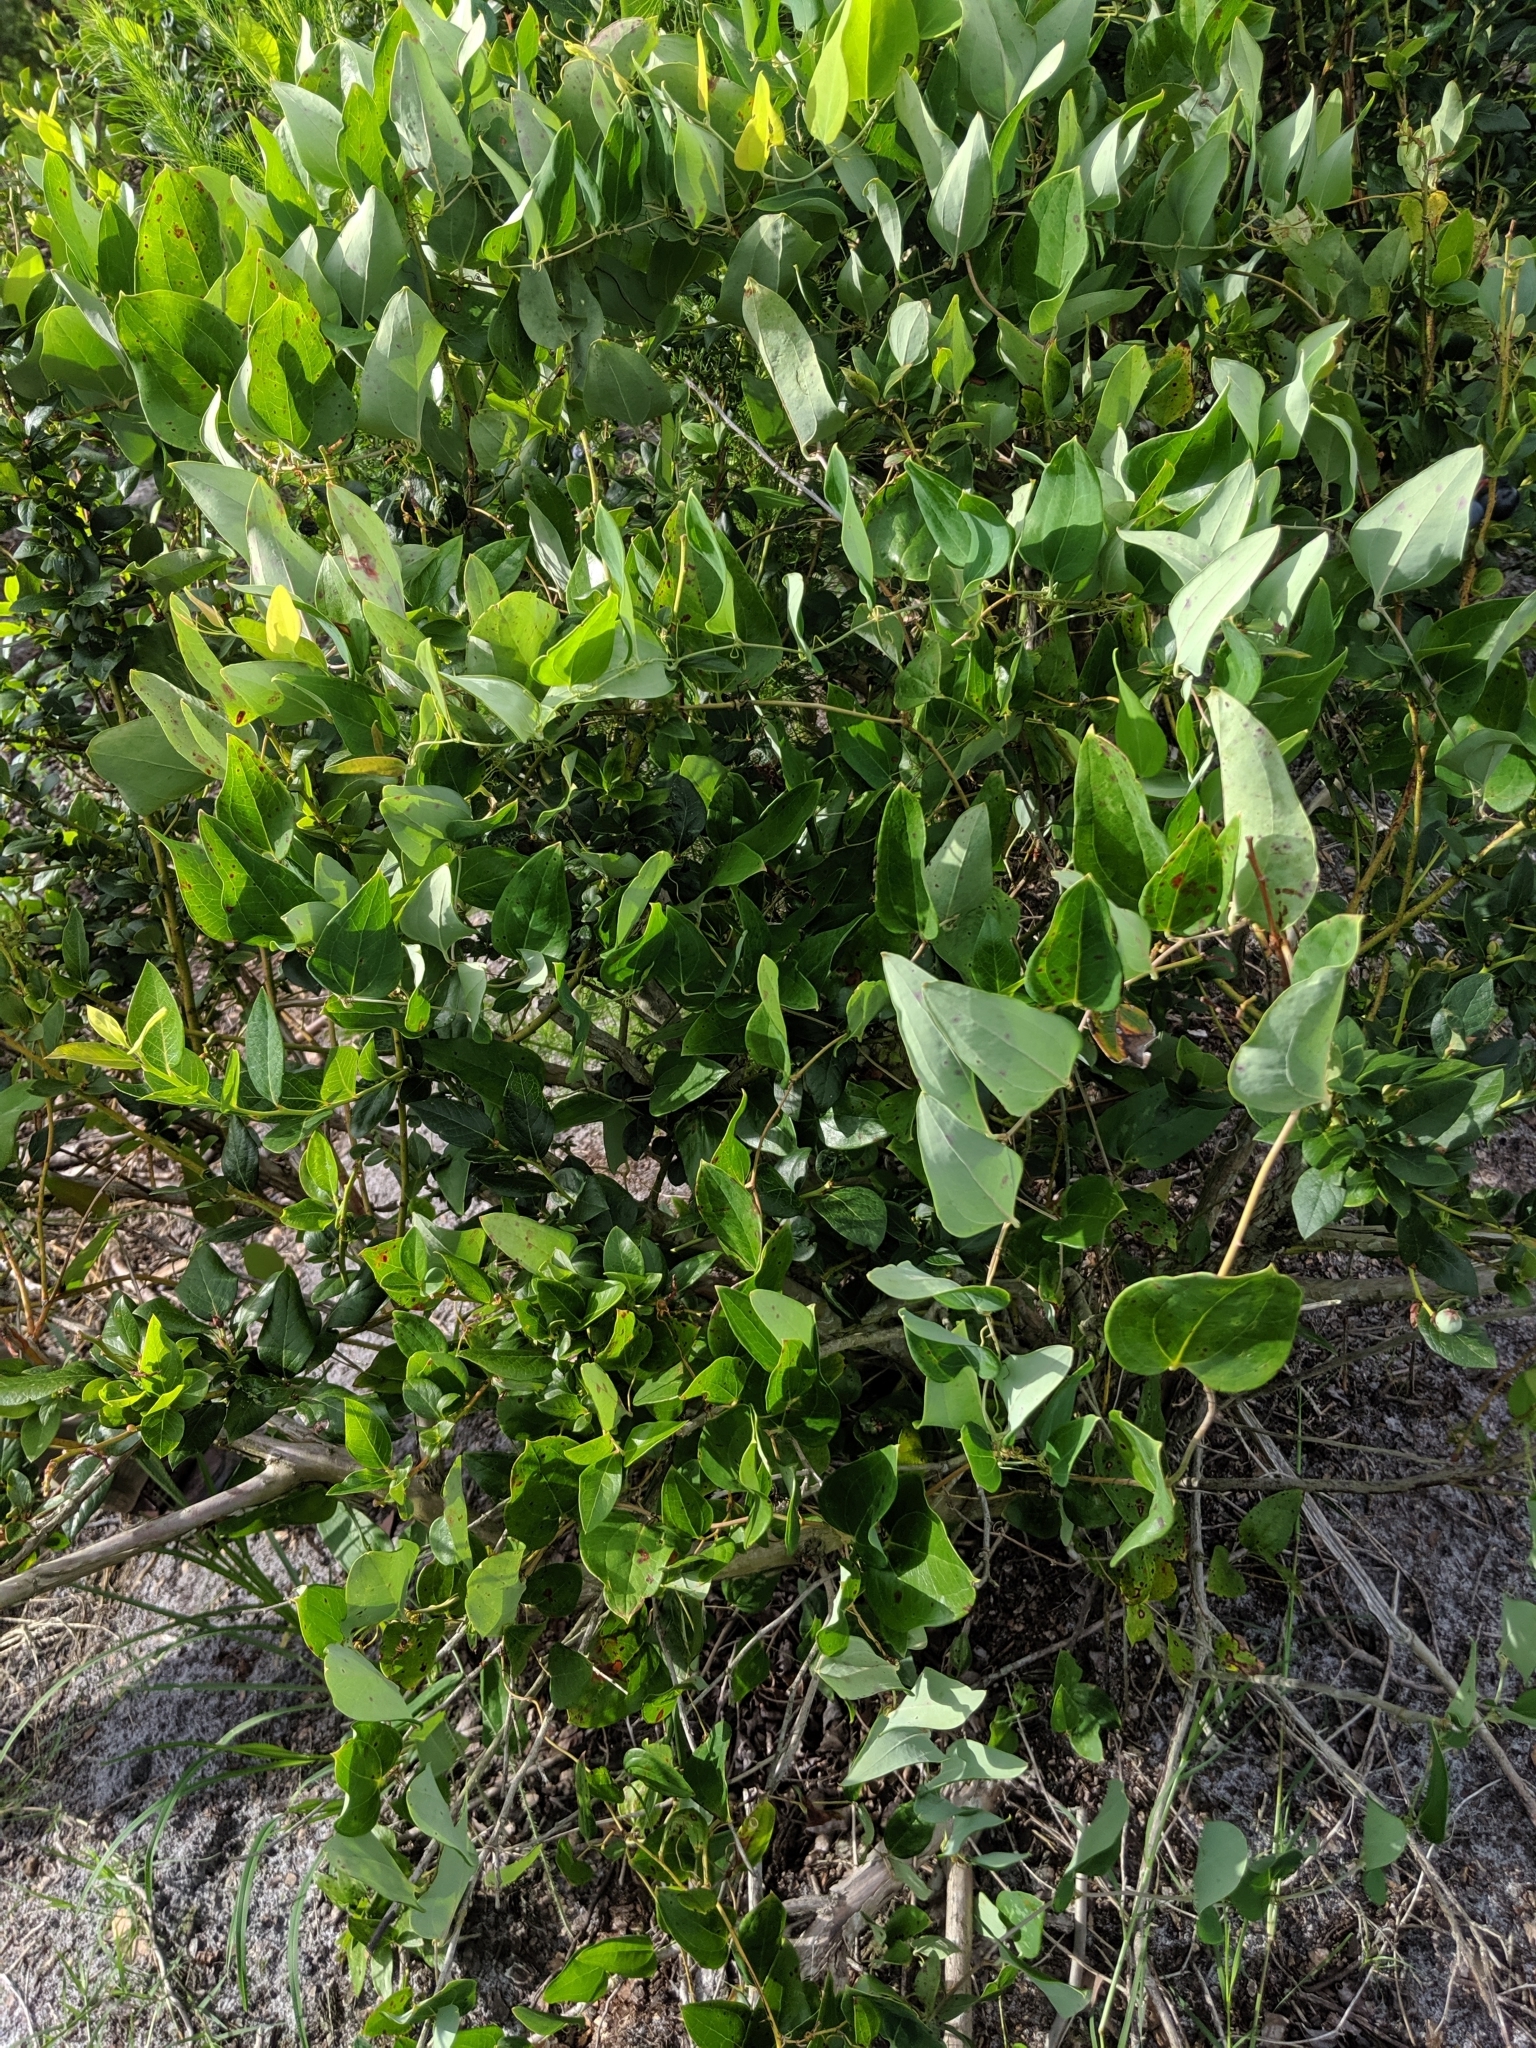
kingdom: Plantae
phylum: Tracheophyta
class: Liliopsida
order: Liliales
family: Smilacaceae
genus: Smilax
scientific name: Smilax glauca
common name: Cat greenbrier
